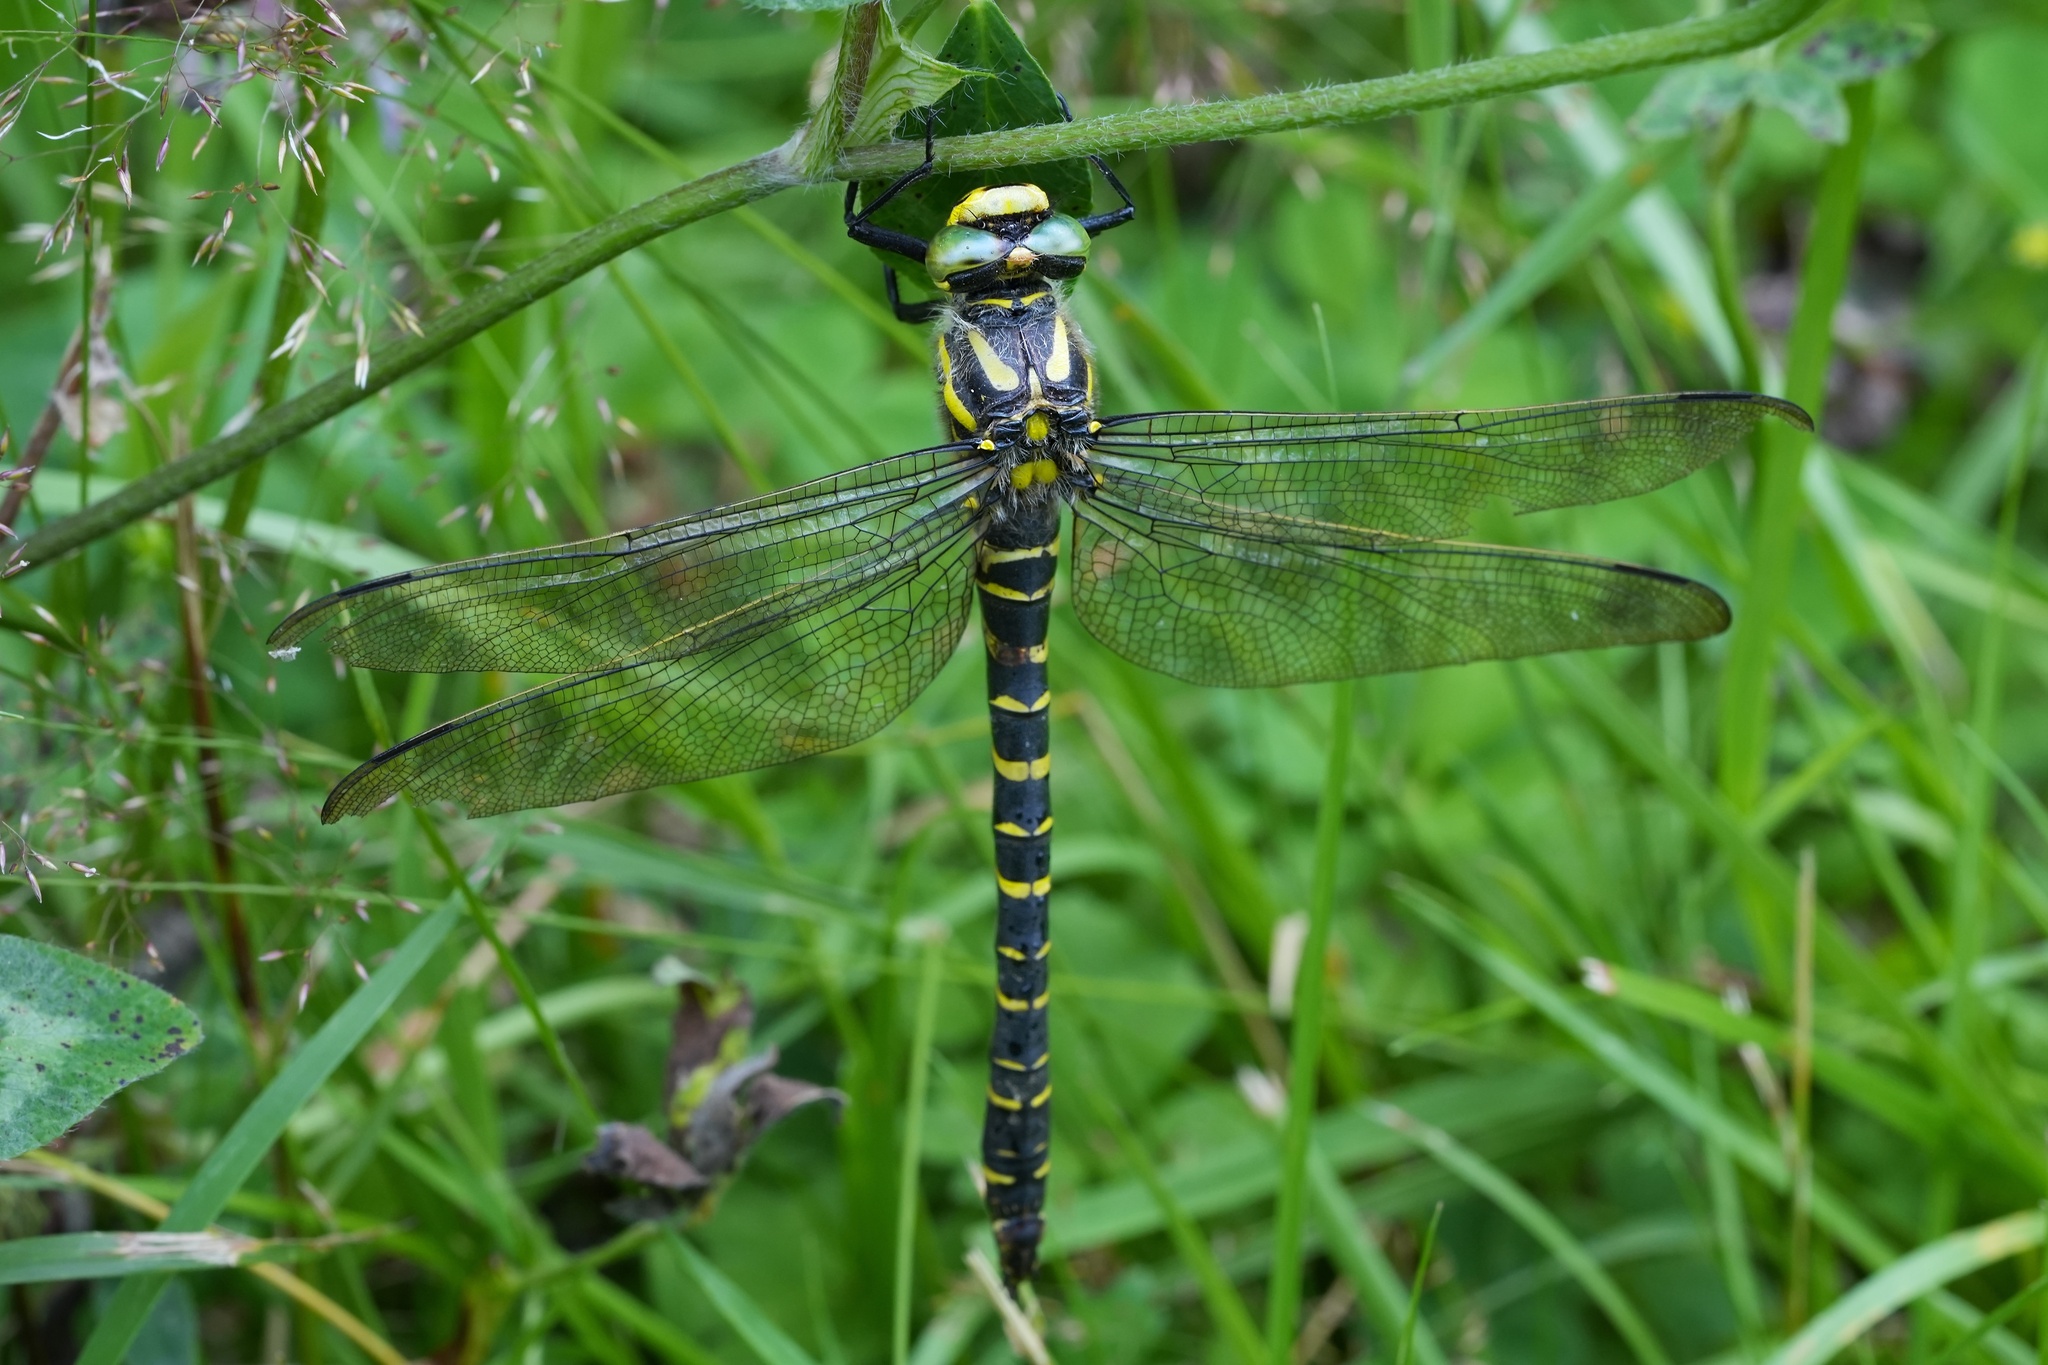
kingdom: Animalia
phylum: Arthropoda
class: Insecta
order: Odonata
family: Cordulegastridae
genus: Cordulegaster
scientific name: Cordulegaster boltonii
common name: Golden-ringed dragonfly
